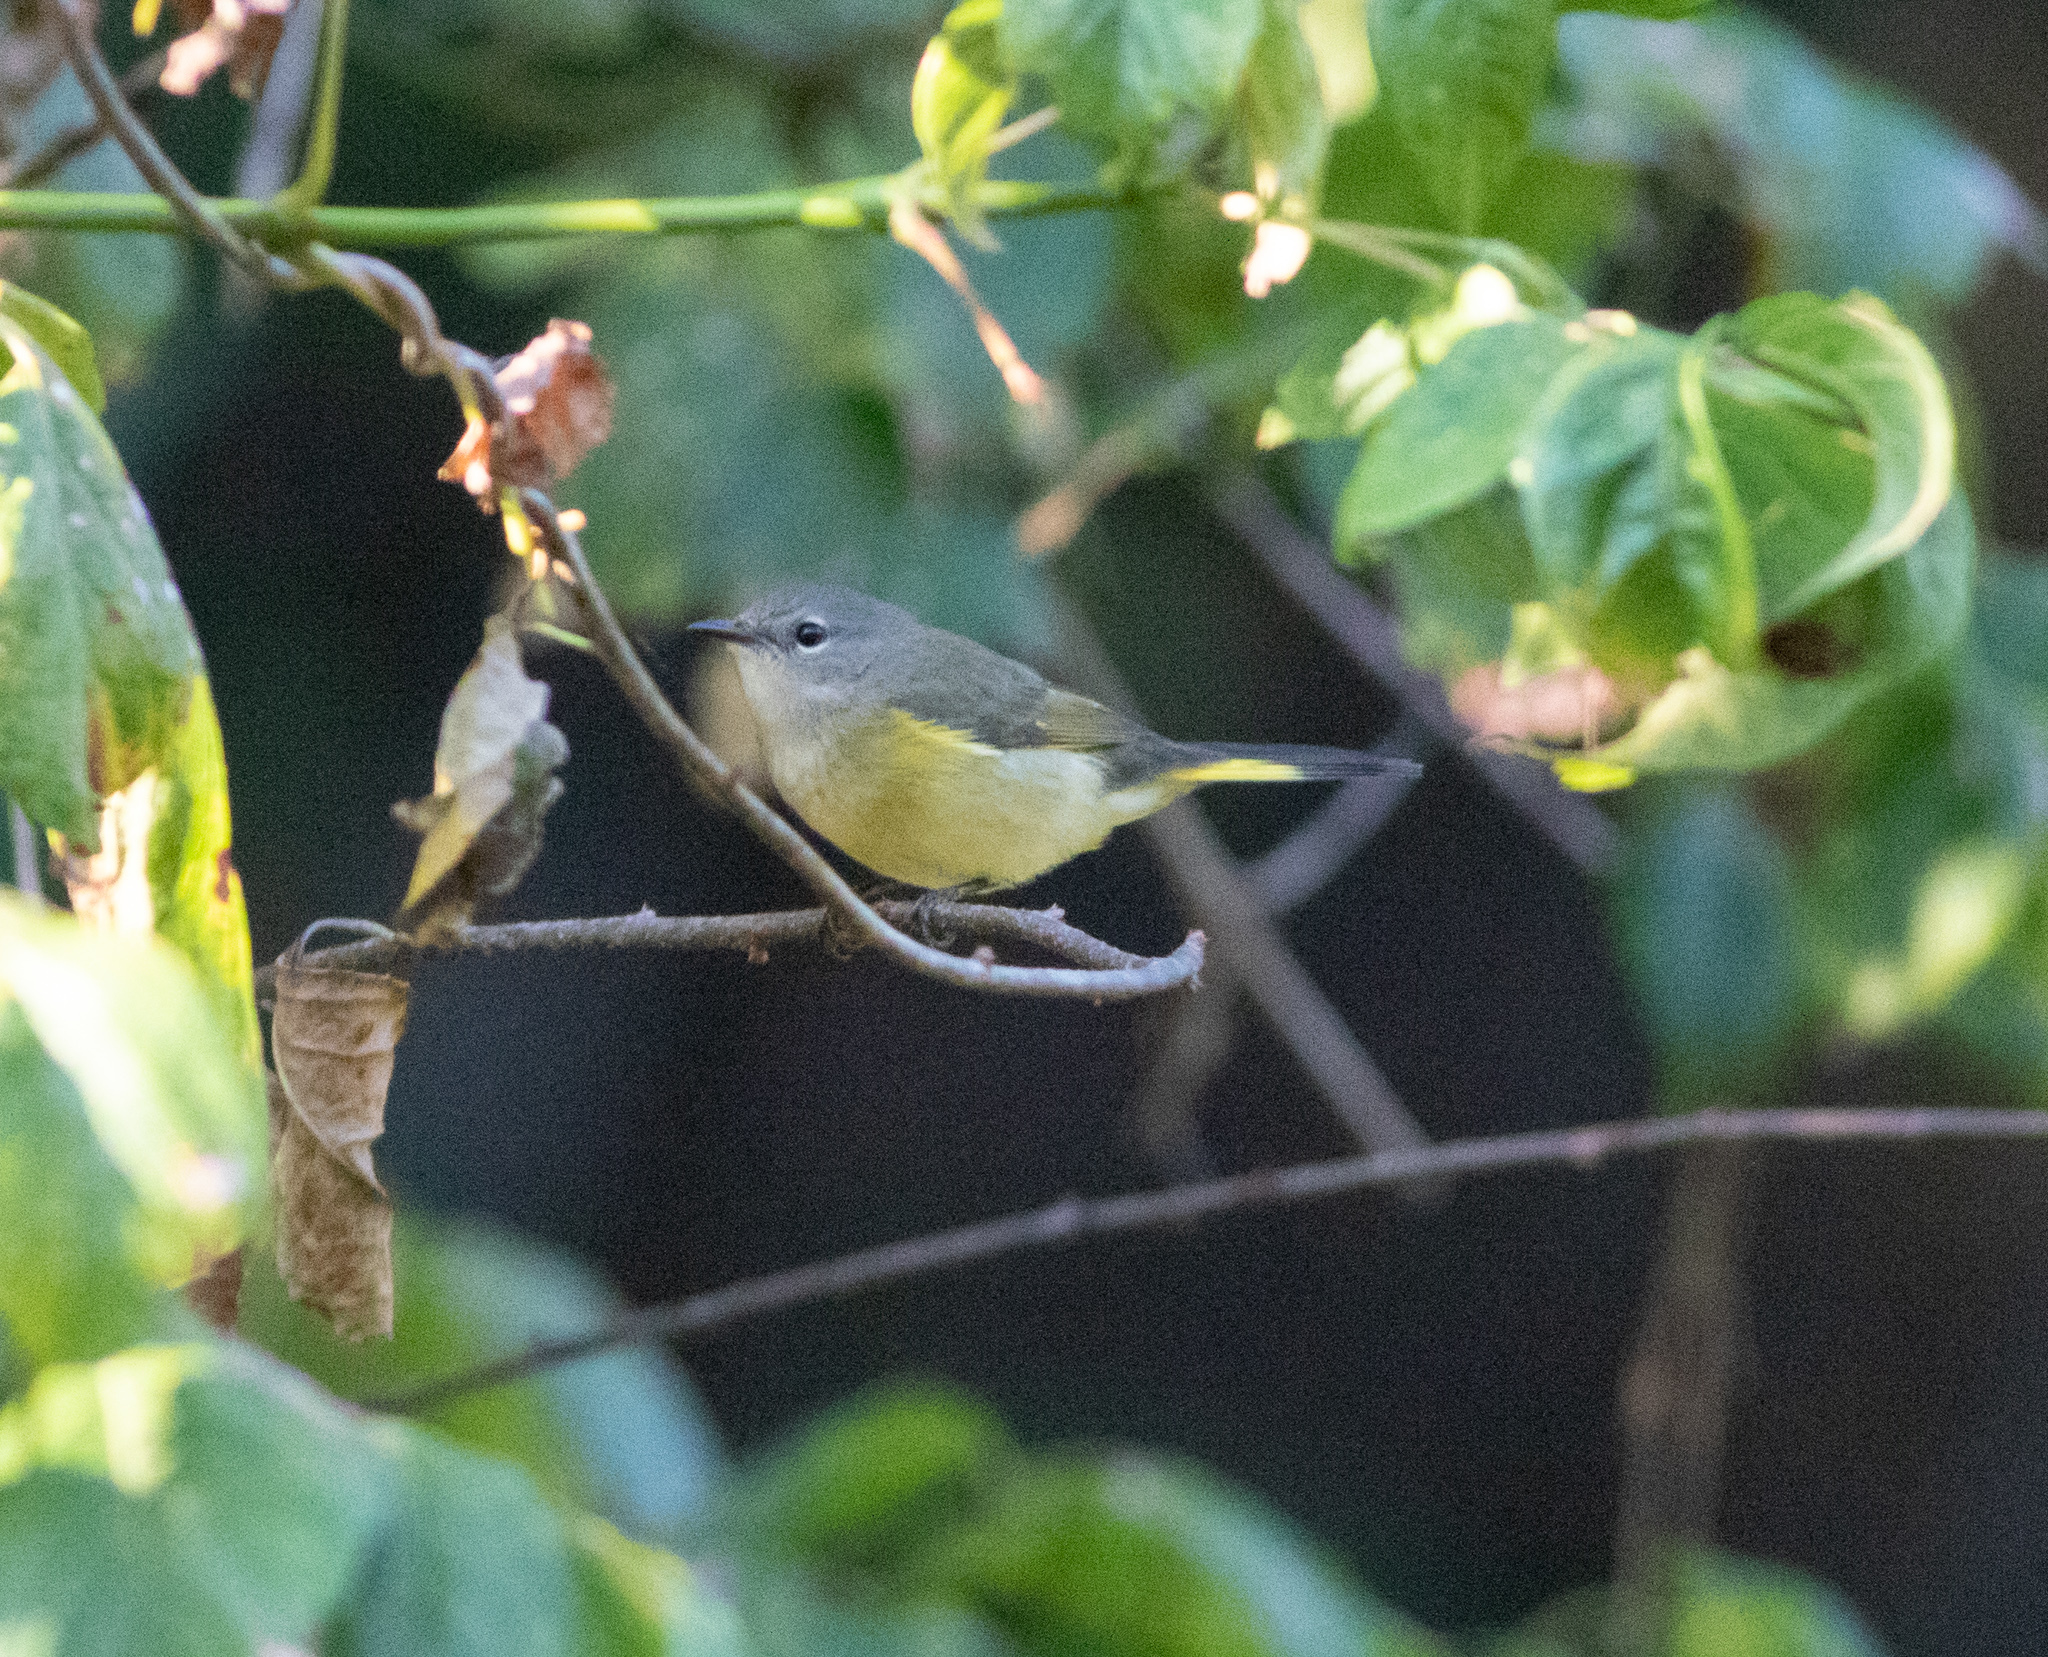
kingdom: Animalia
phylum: Chordata
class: Aves
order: Passeriformes
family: Parulidae
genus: Setophaga
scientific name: Setophaga ruticilla
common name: American redstart
